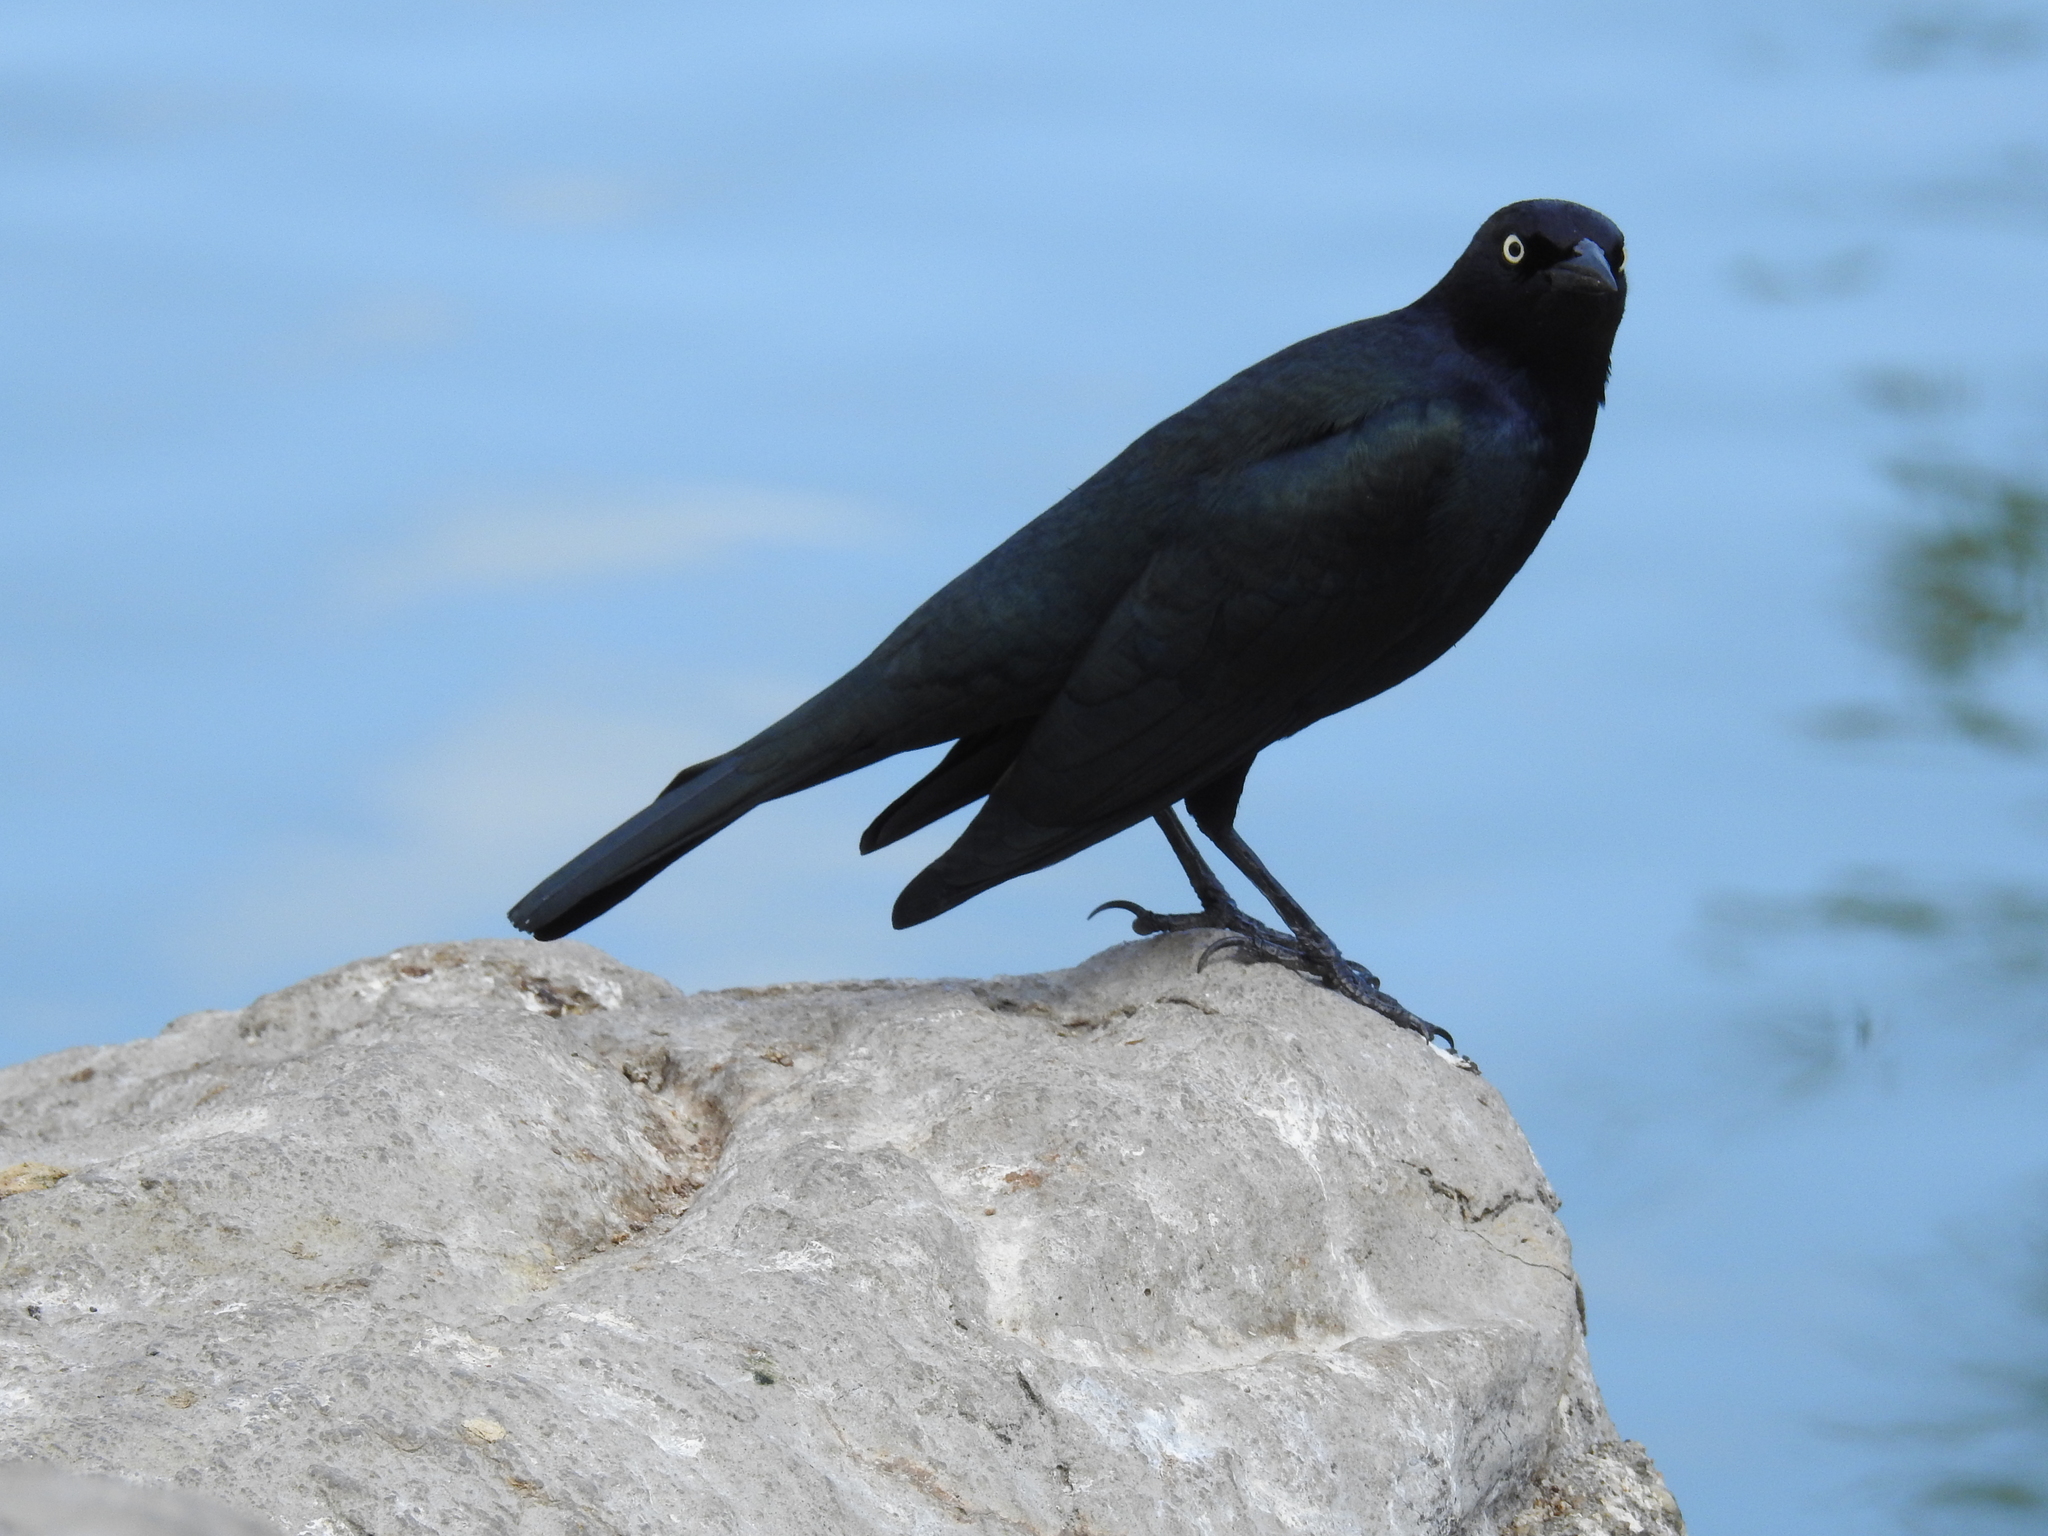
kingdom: Animalia
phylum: Chordata
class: Aves
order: Passeriformes
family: Icteridae
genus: Euphagus
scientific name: Euphagus cyanocephalus
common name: Brewer's blackbird
